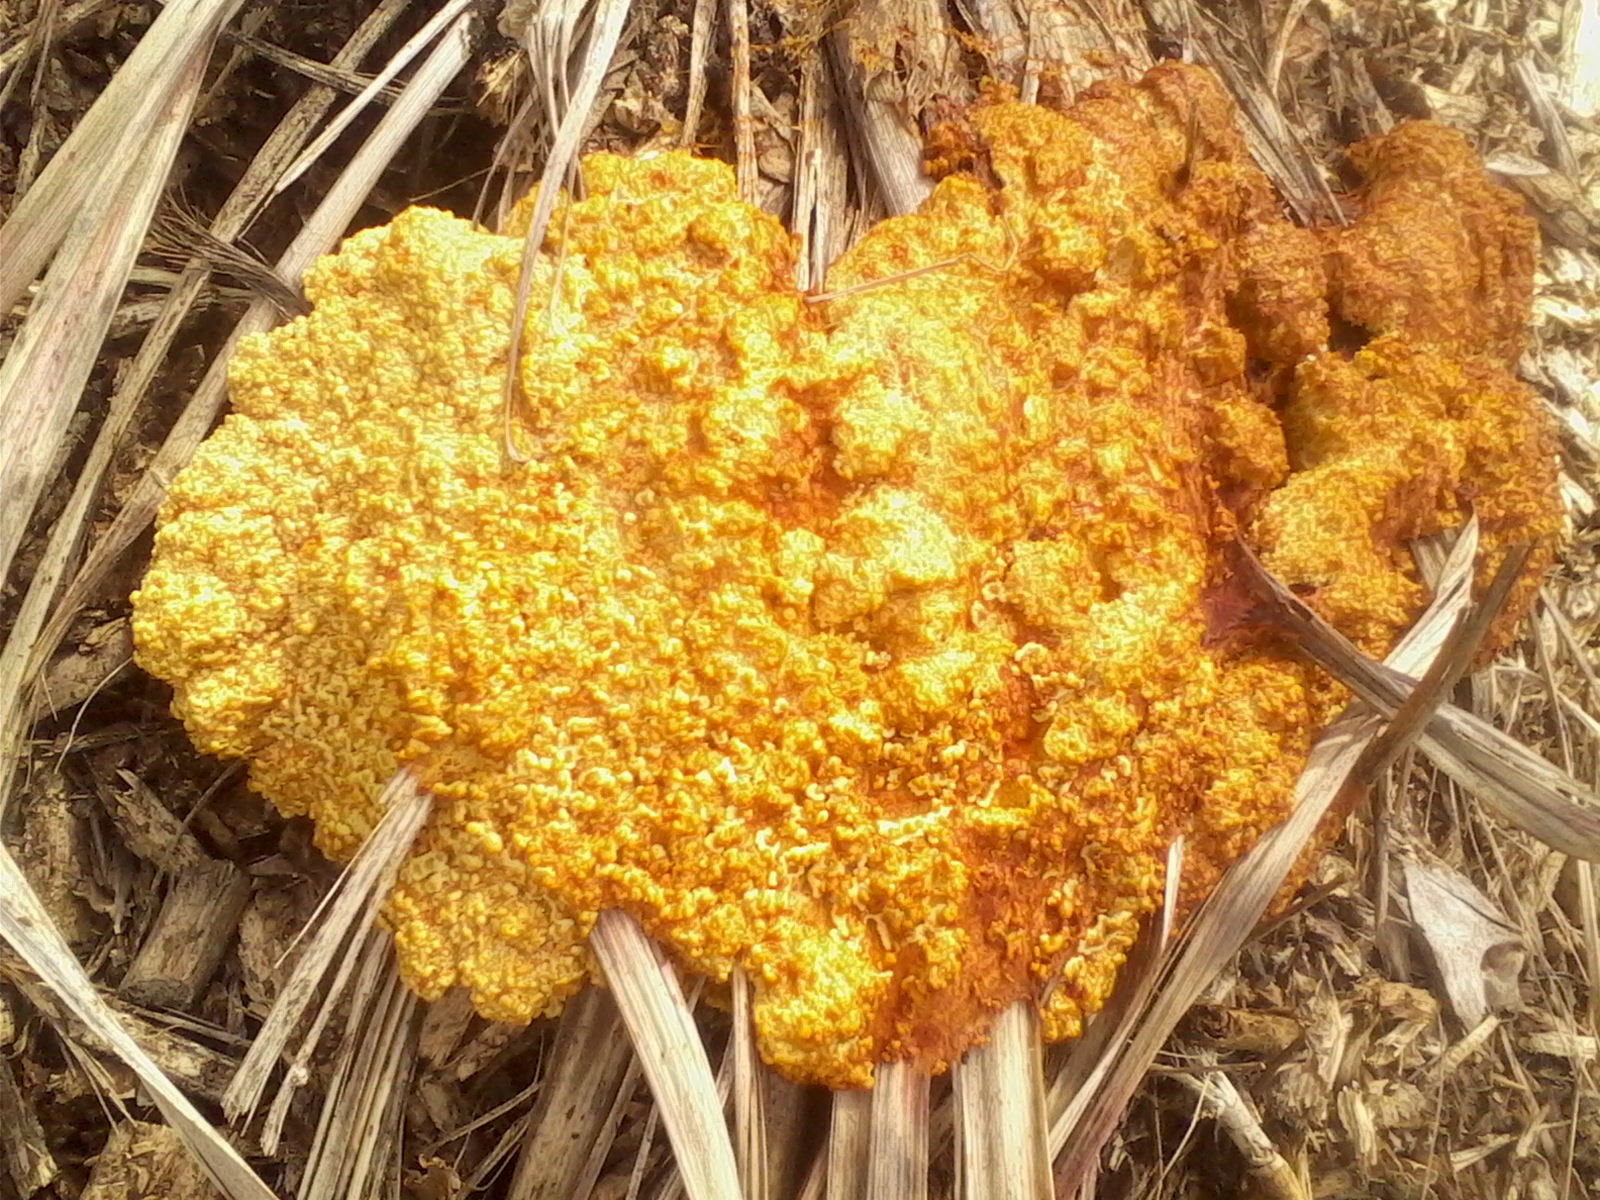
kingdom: Protozoa
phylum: Mycetozoa
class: Myxomycetes
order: Physarales
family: Physaraceae
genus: Fuligo
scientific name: Fuligo septica
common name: Dog vomit slime mold
